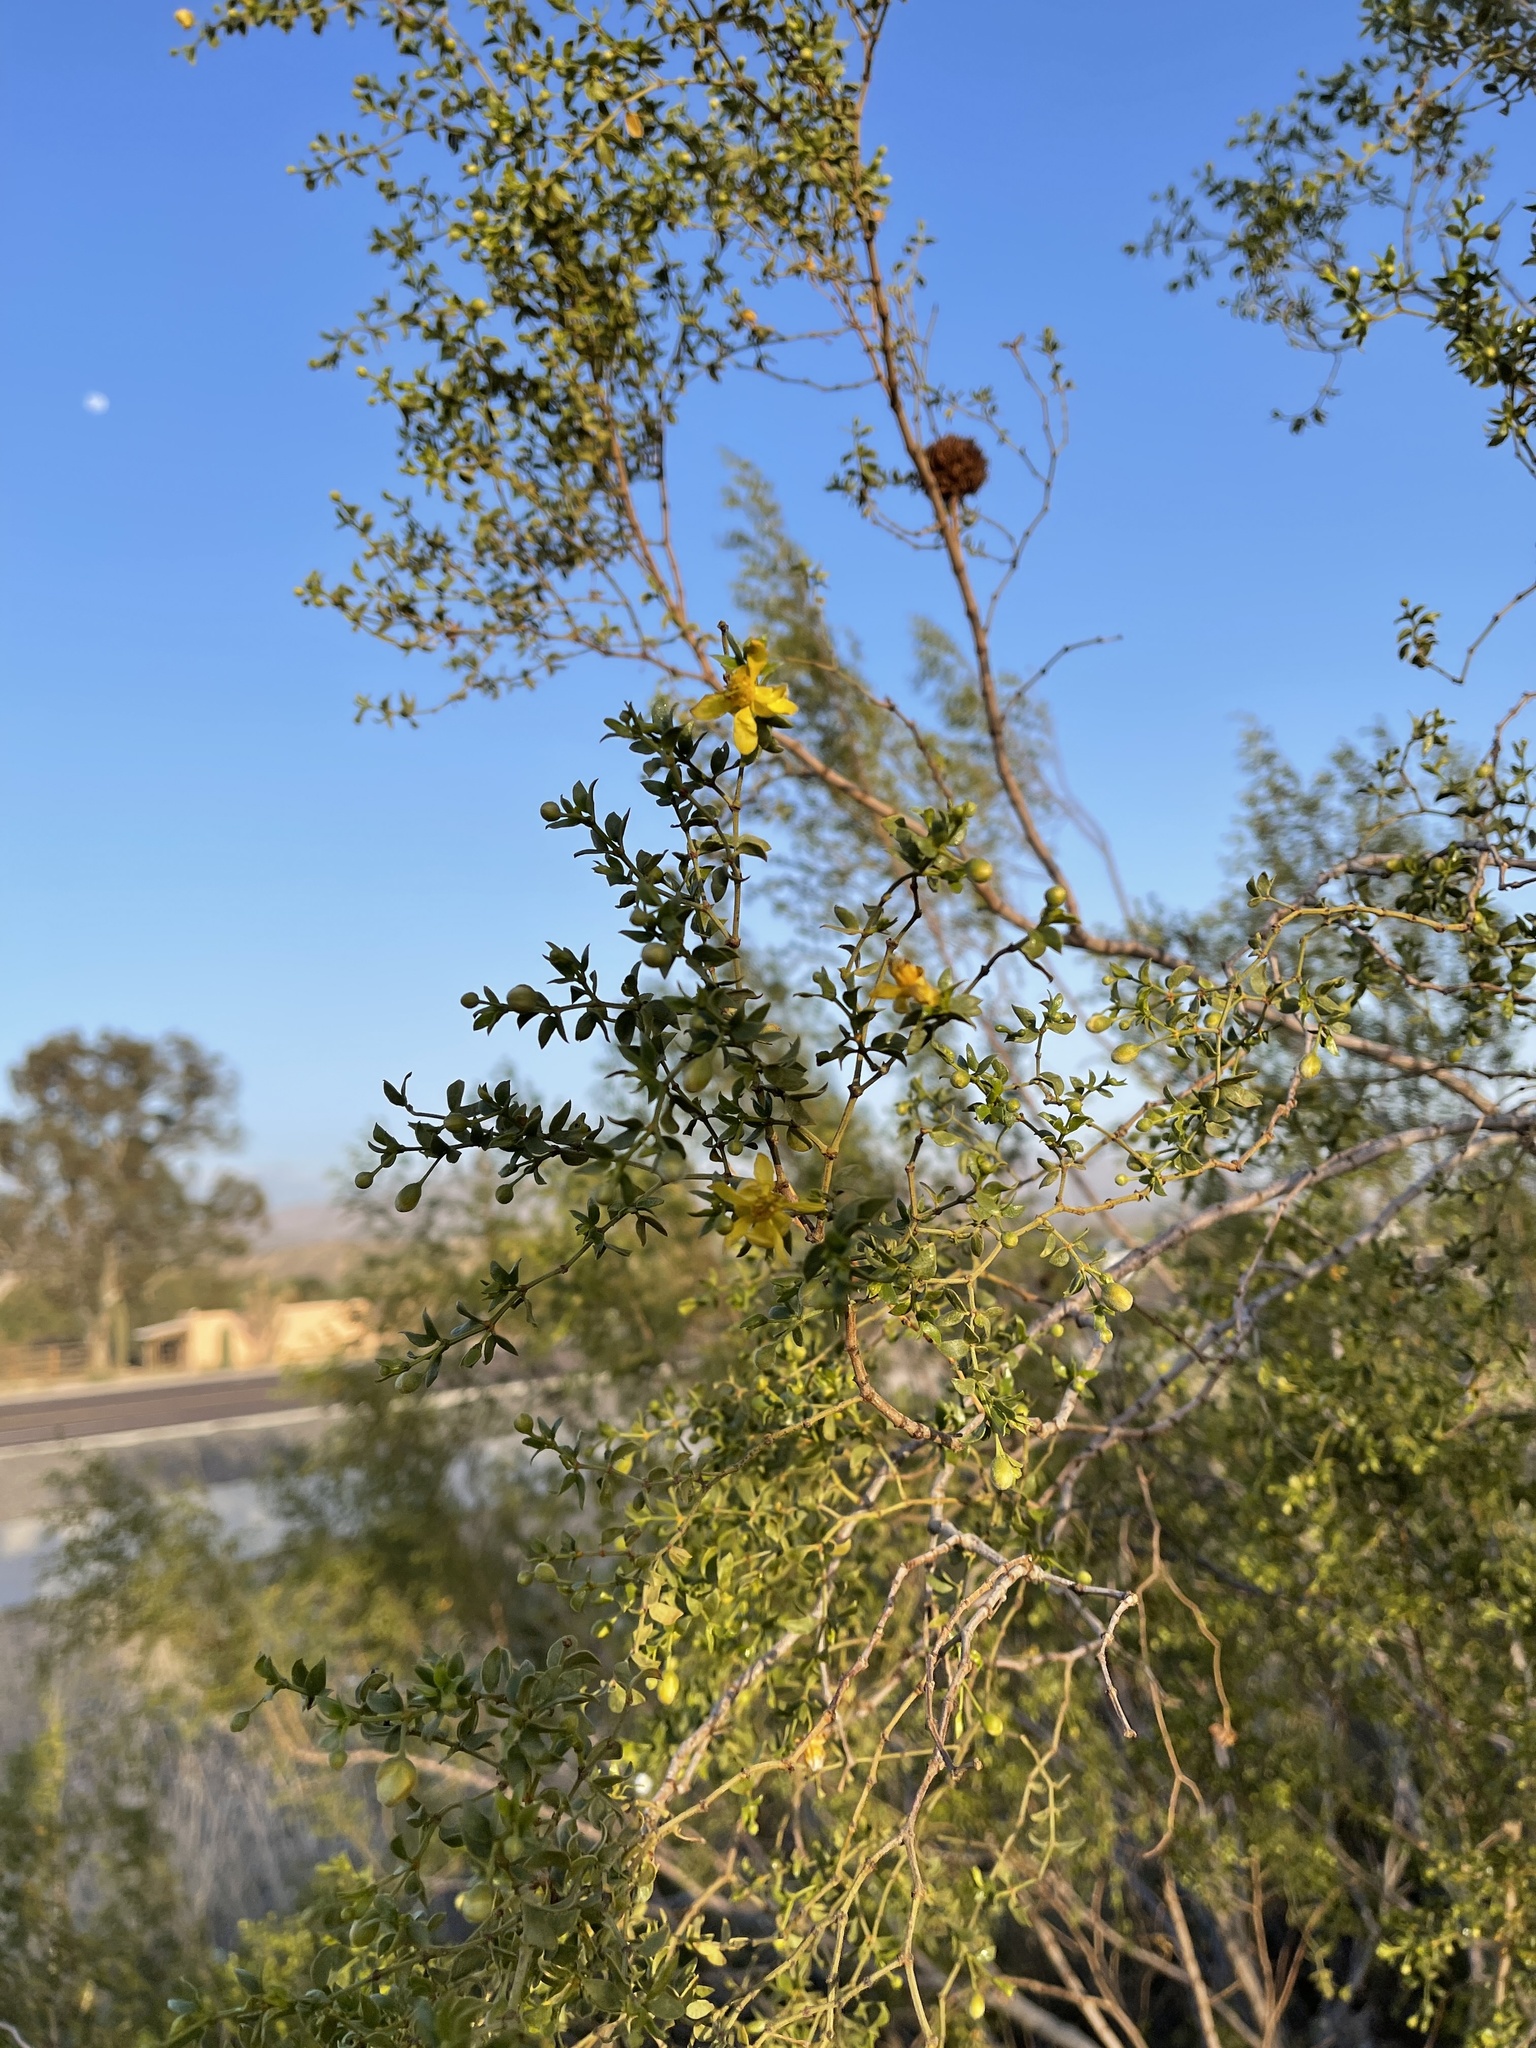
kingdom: Plantae
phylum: Tracheophyta
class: Magnoliopsida
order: Zygophyllales
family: Zygophyllaceae
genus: Larrea
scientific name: Larrea tridentata
